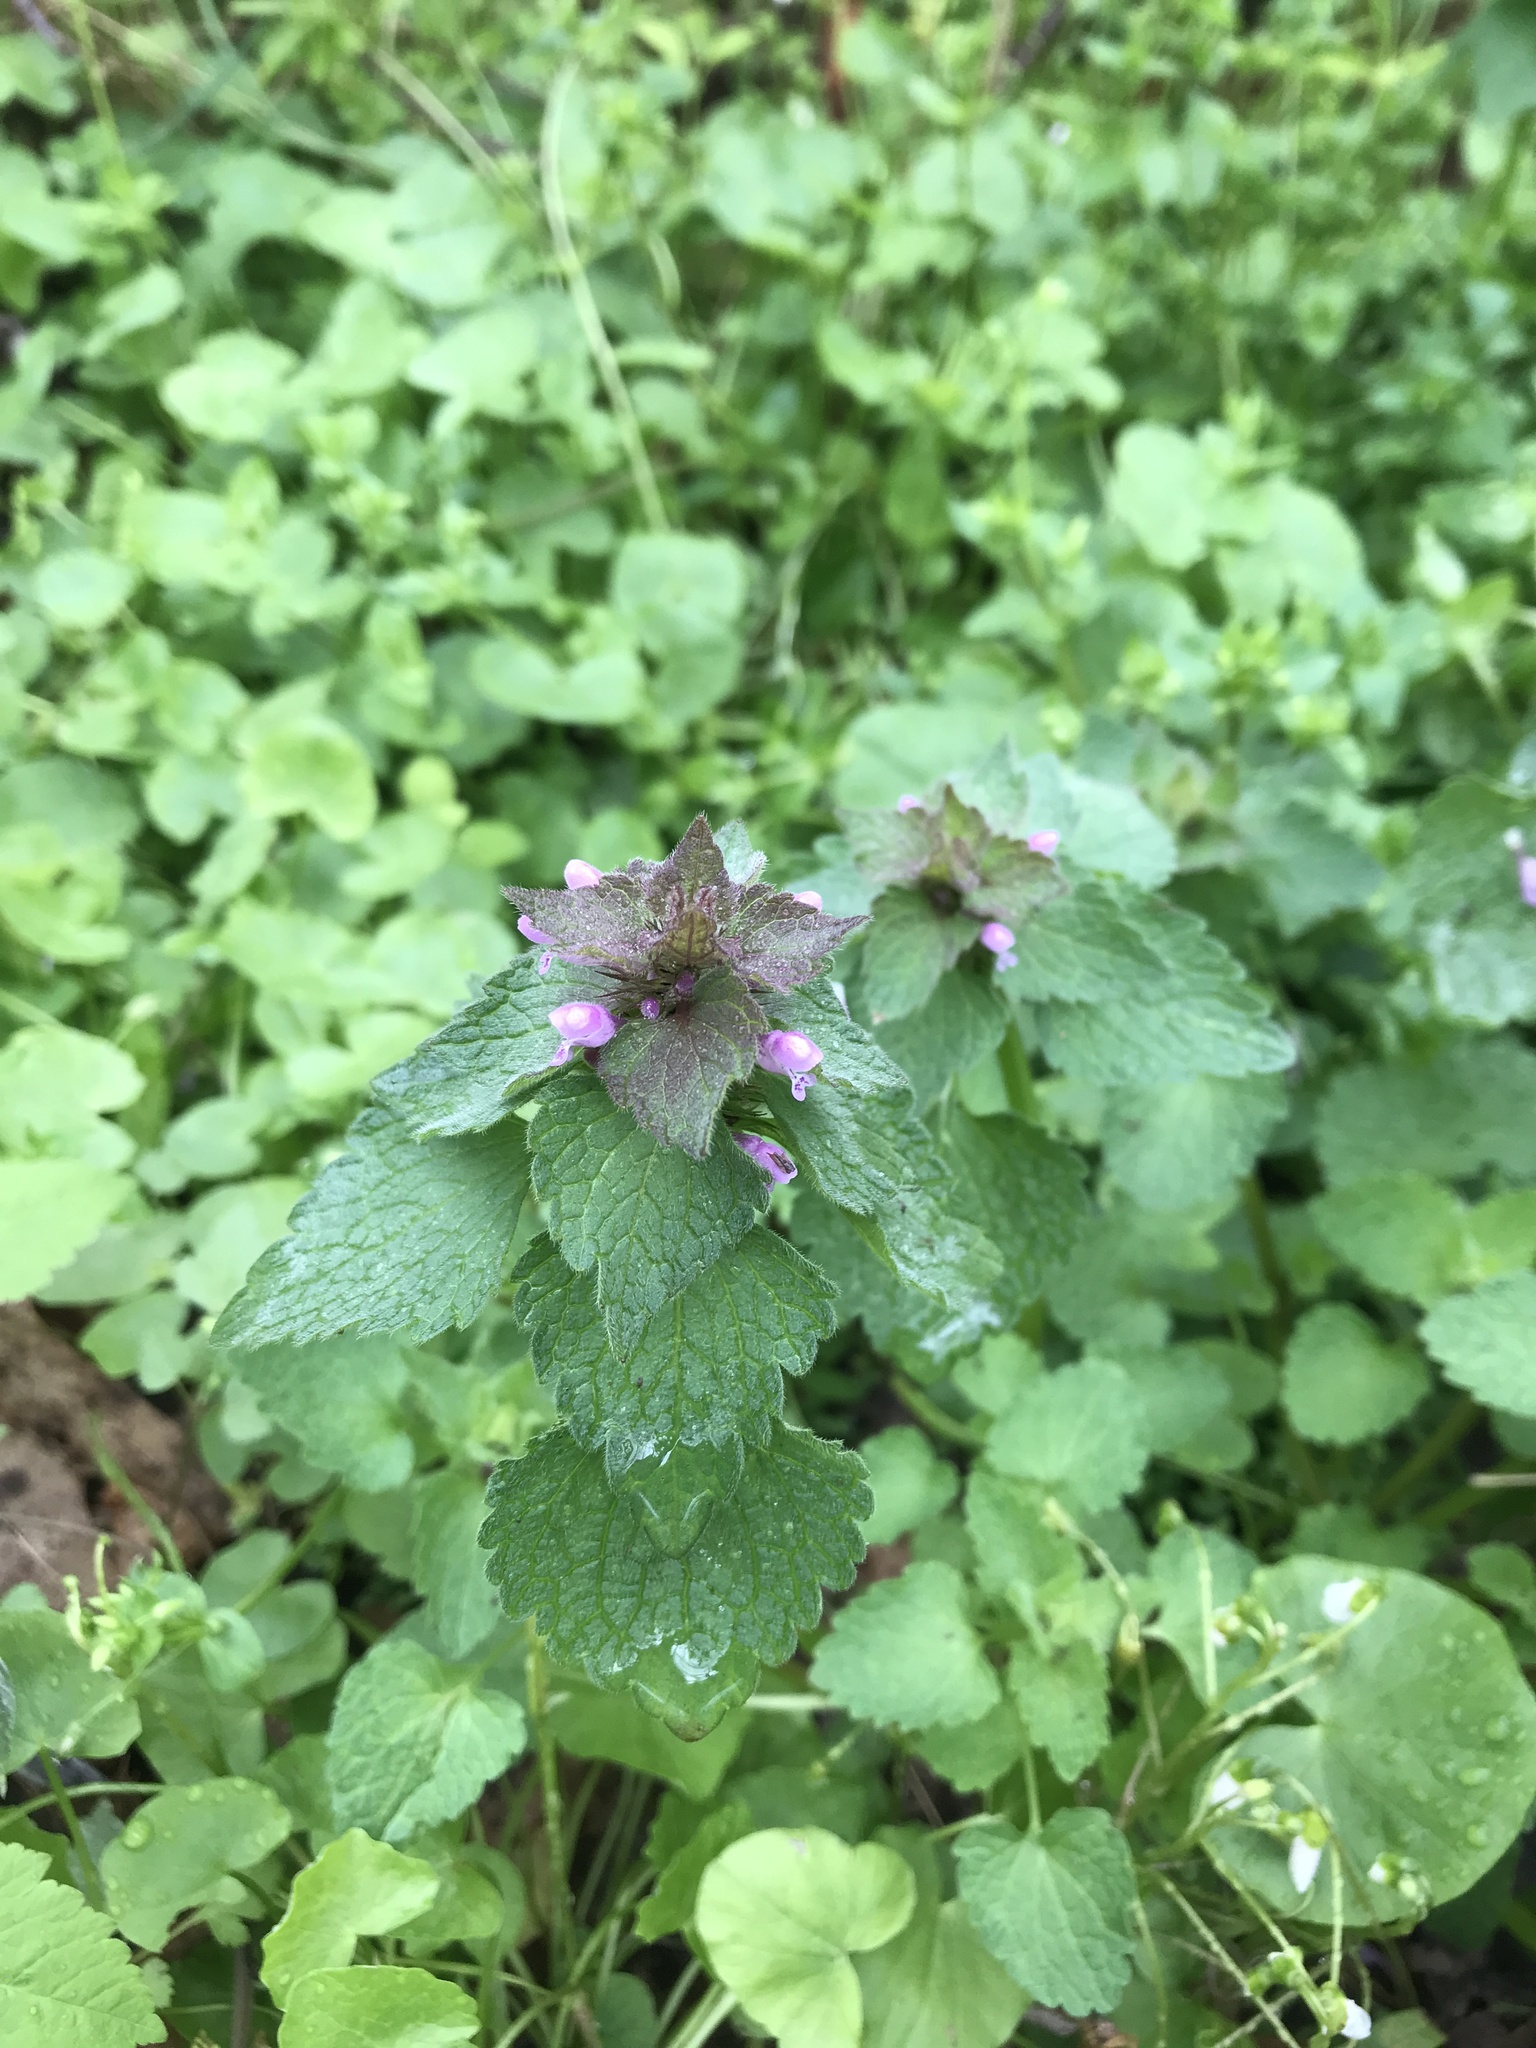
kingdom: Plantae
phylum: Tracheophyta
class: Magnoliopsida
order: Lamiales
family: Lamiaceae
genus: Lamium
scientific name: Lamium purpureum
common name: Red dead-nettle
